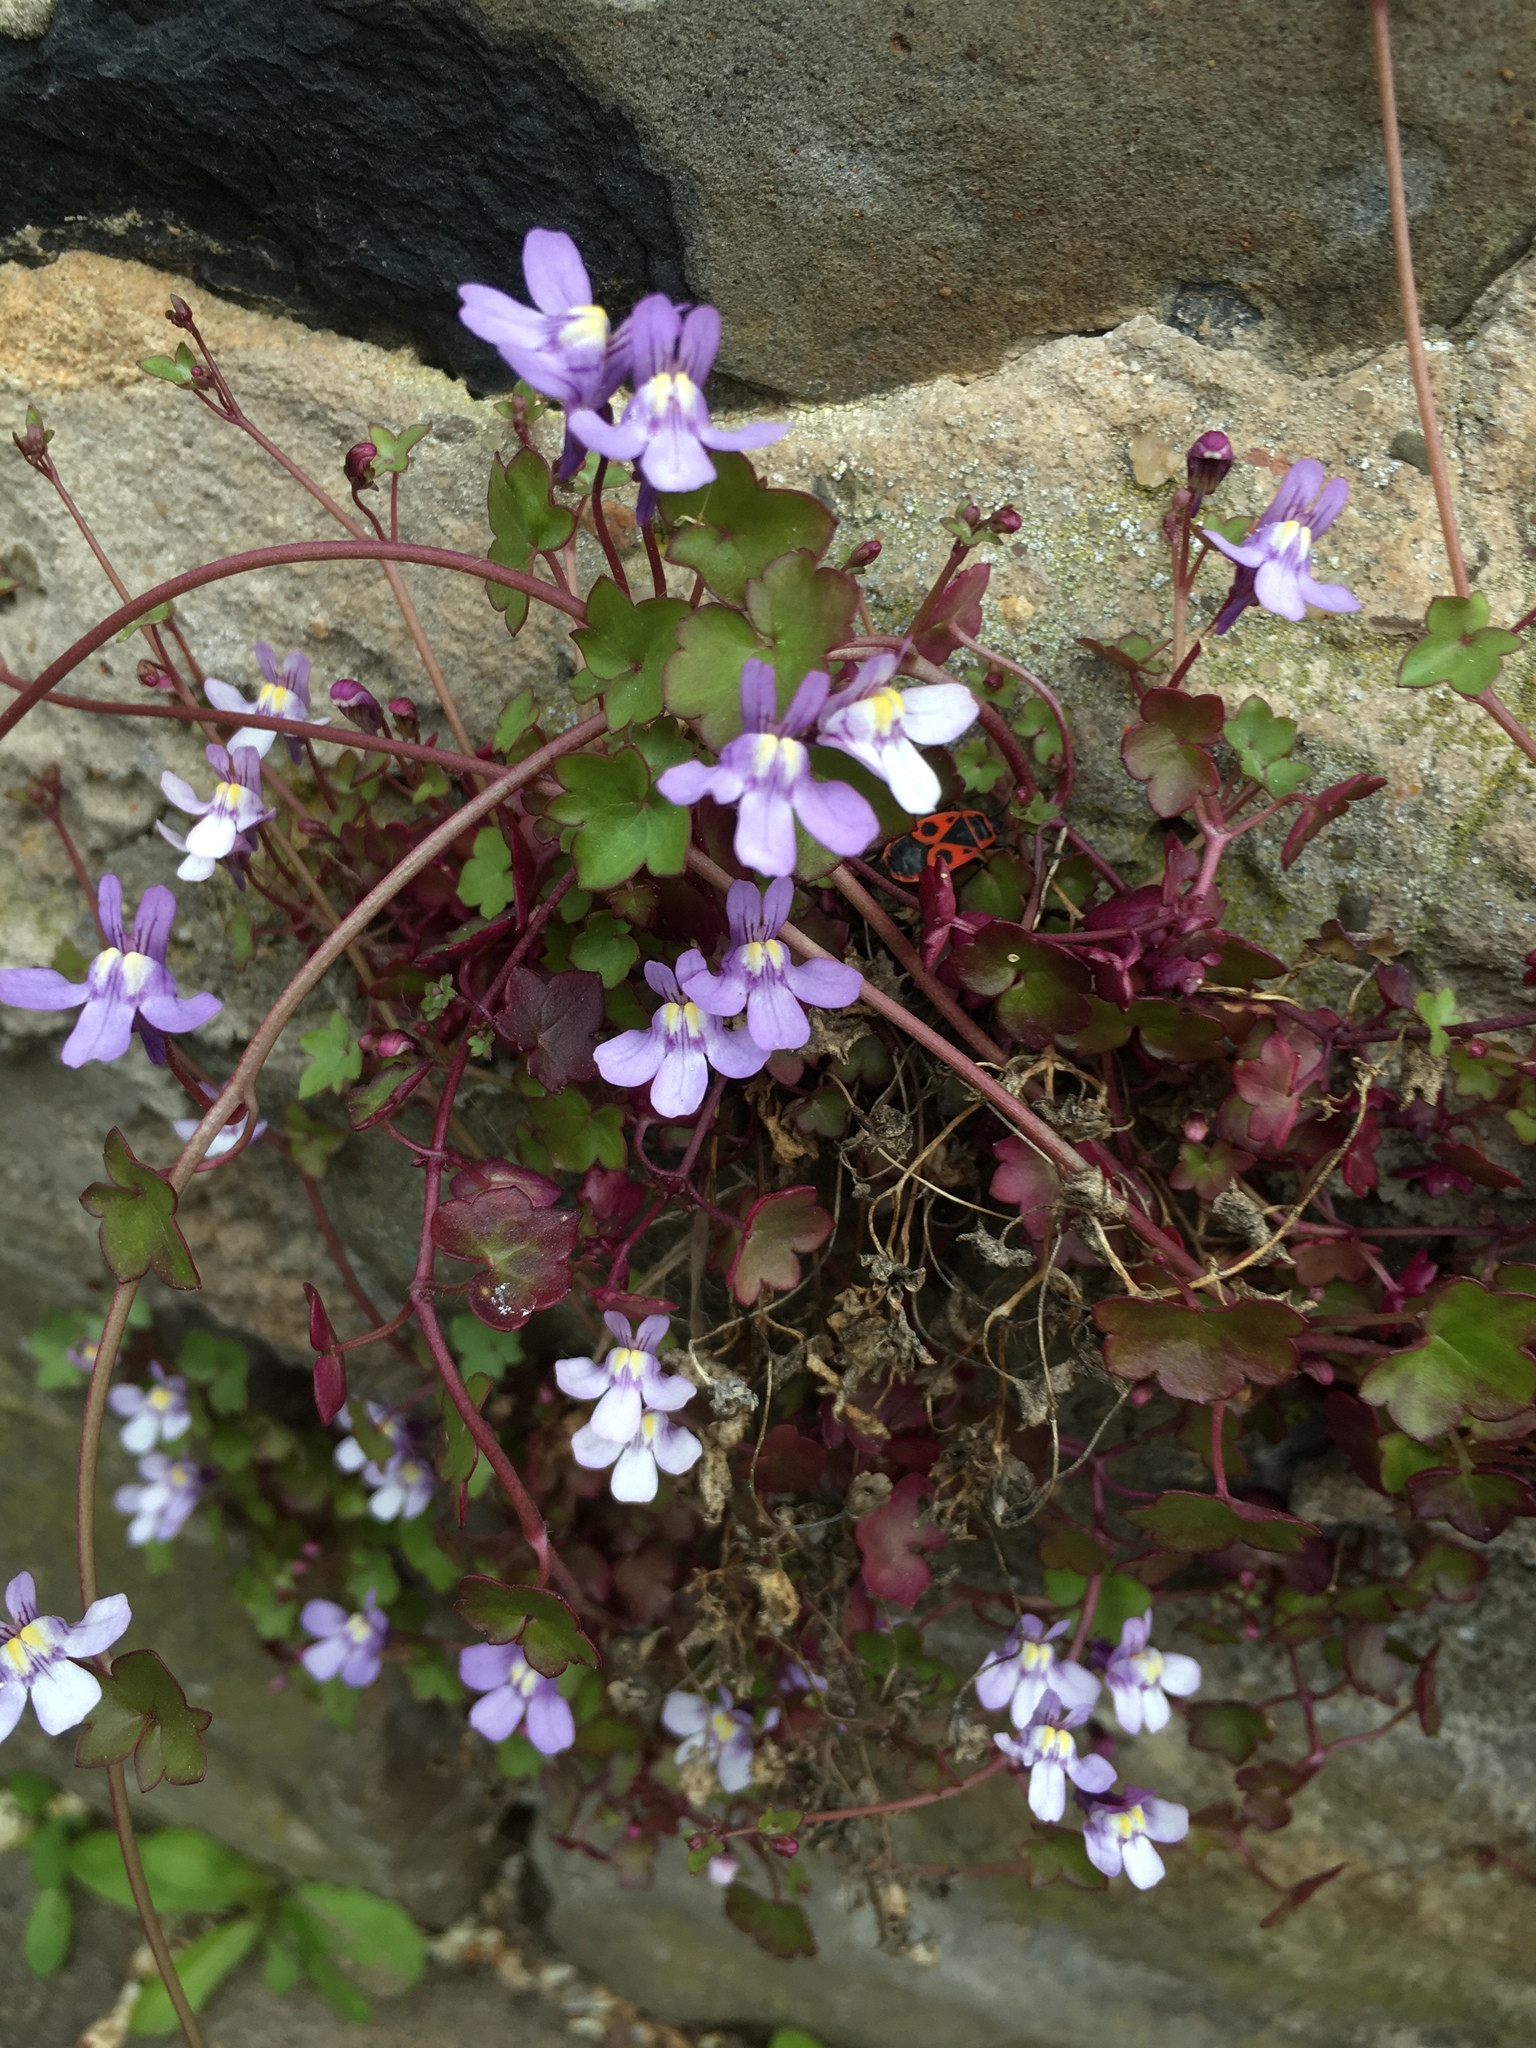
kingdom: Plantae
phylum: Tracheophyta
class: Magnoliopsida
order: Lamiales
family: Plantaginaceae
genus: Cymbalaria
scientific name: Cymbalaria muralis
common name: Ivy-leaved toadflax
